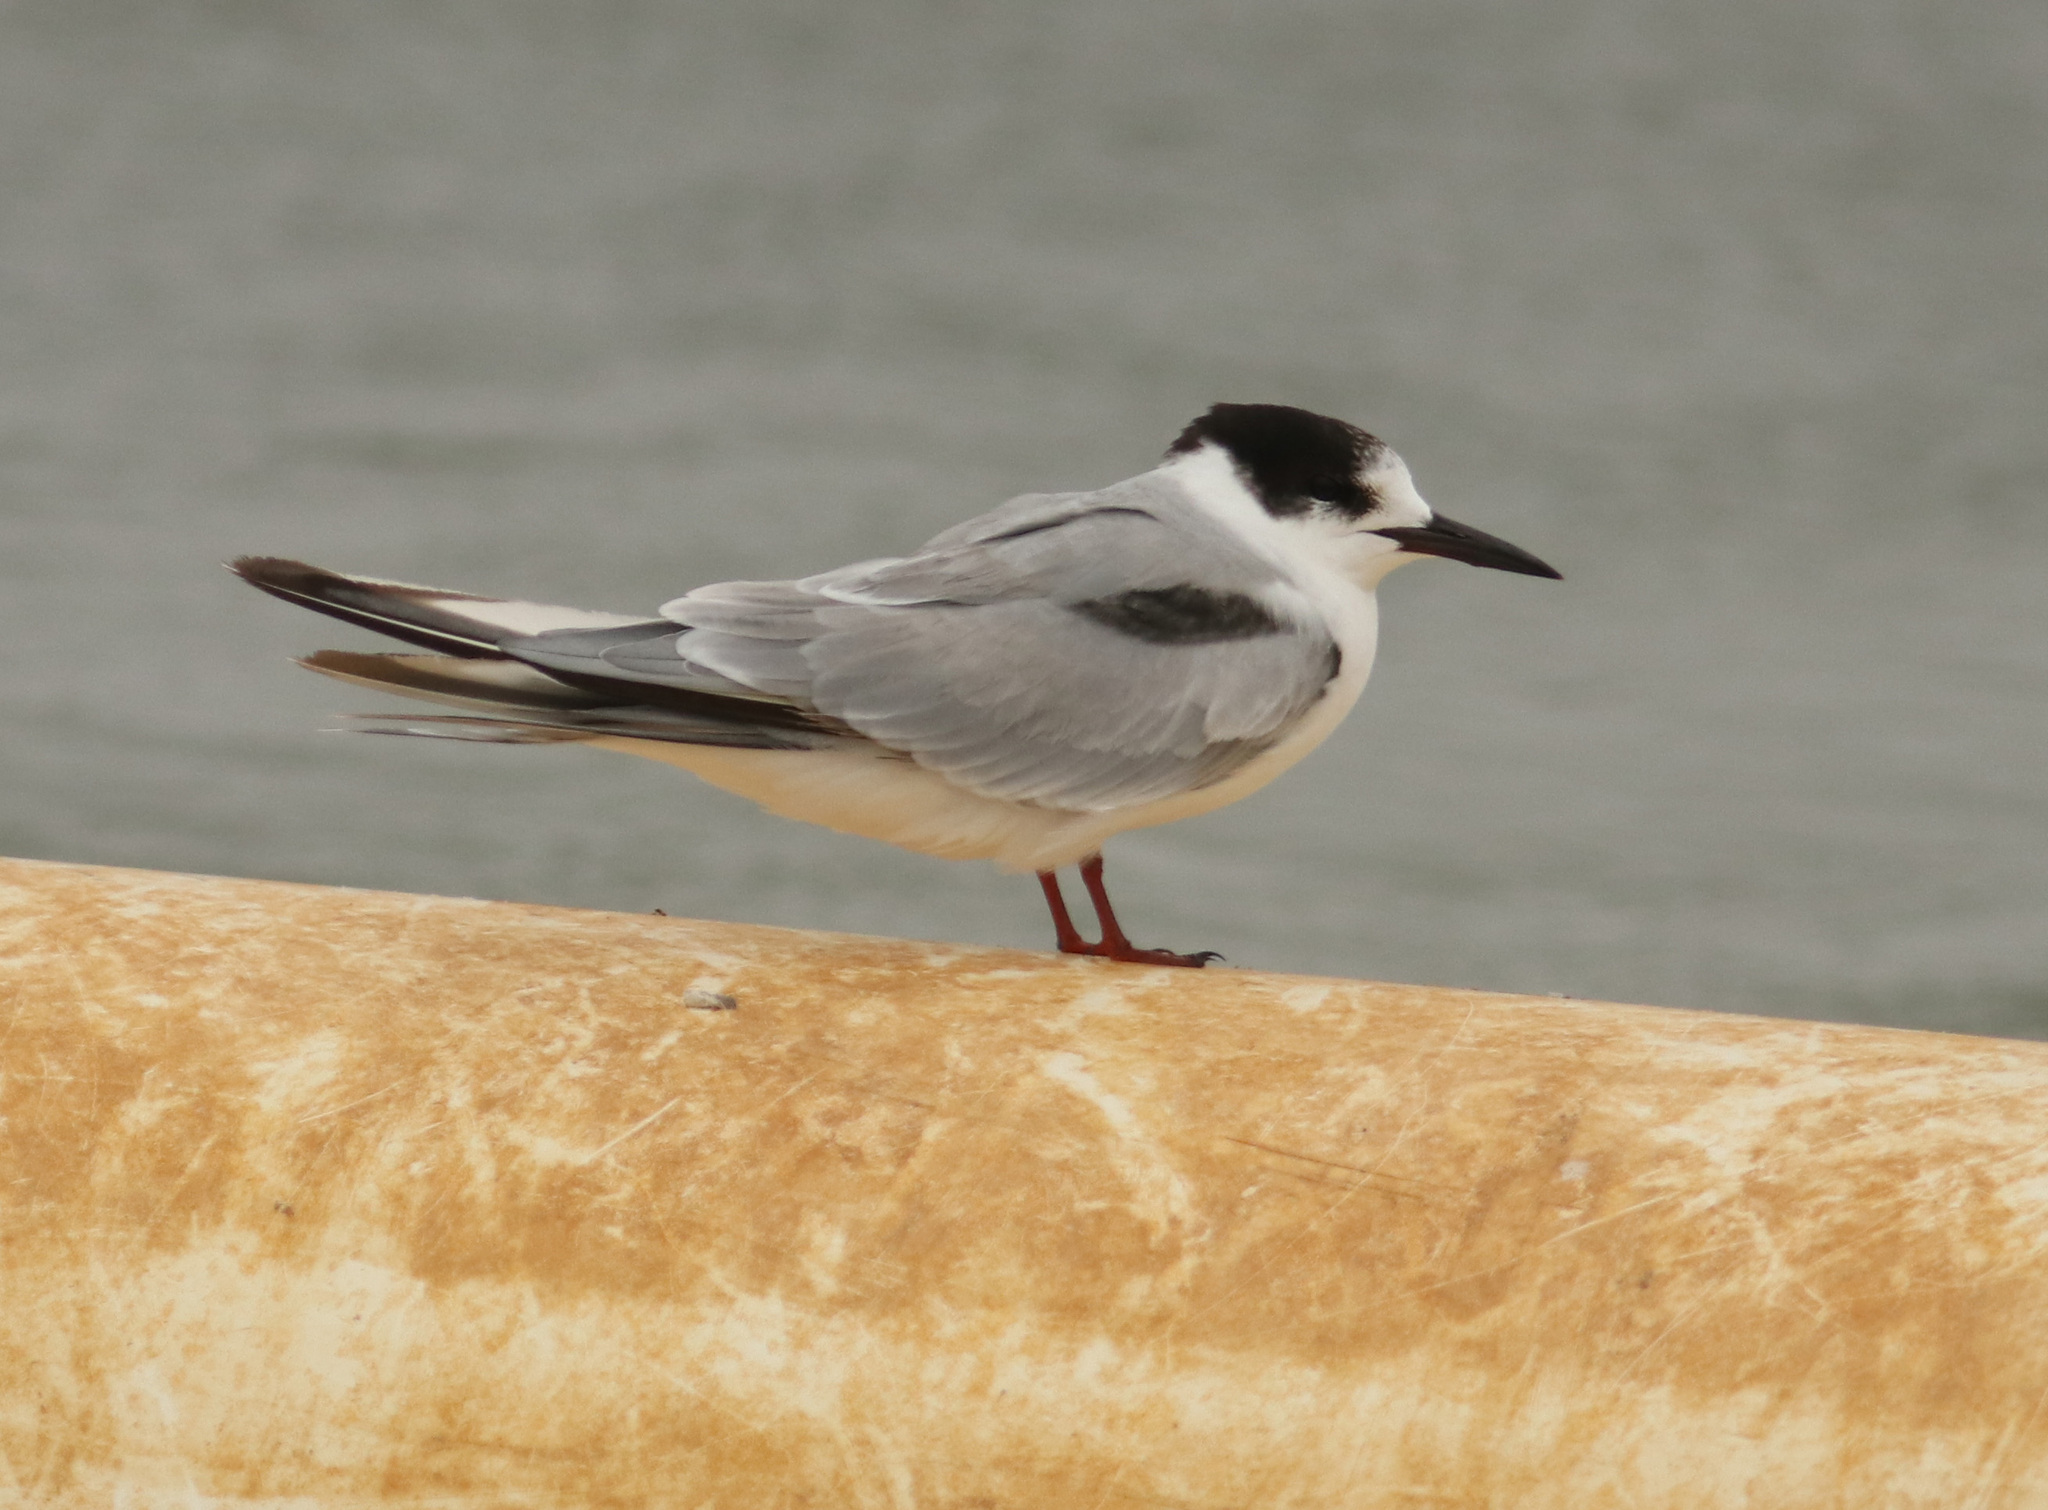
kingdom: Animalia
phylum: Chordata
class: Aves
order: Charadriiformes
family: Laridae
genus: Sterna
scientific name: Sterna hirundo
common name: Common tern
